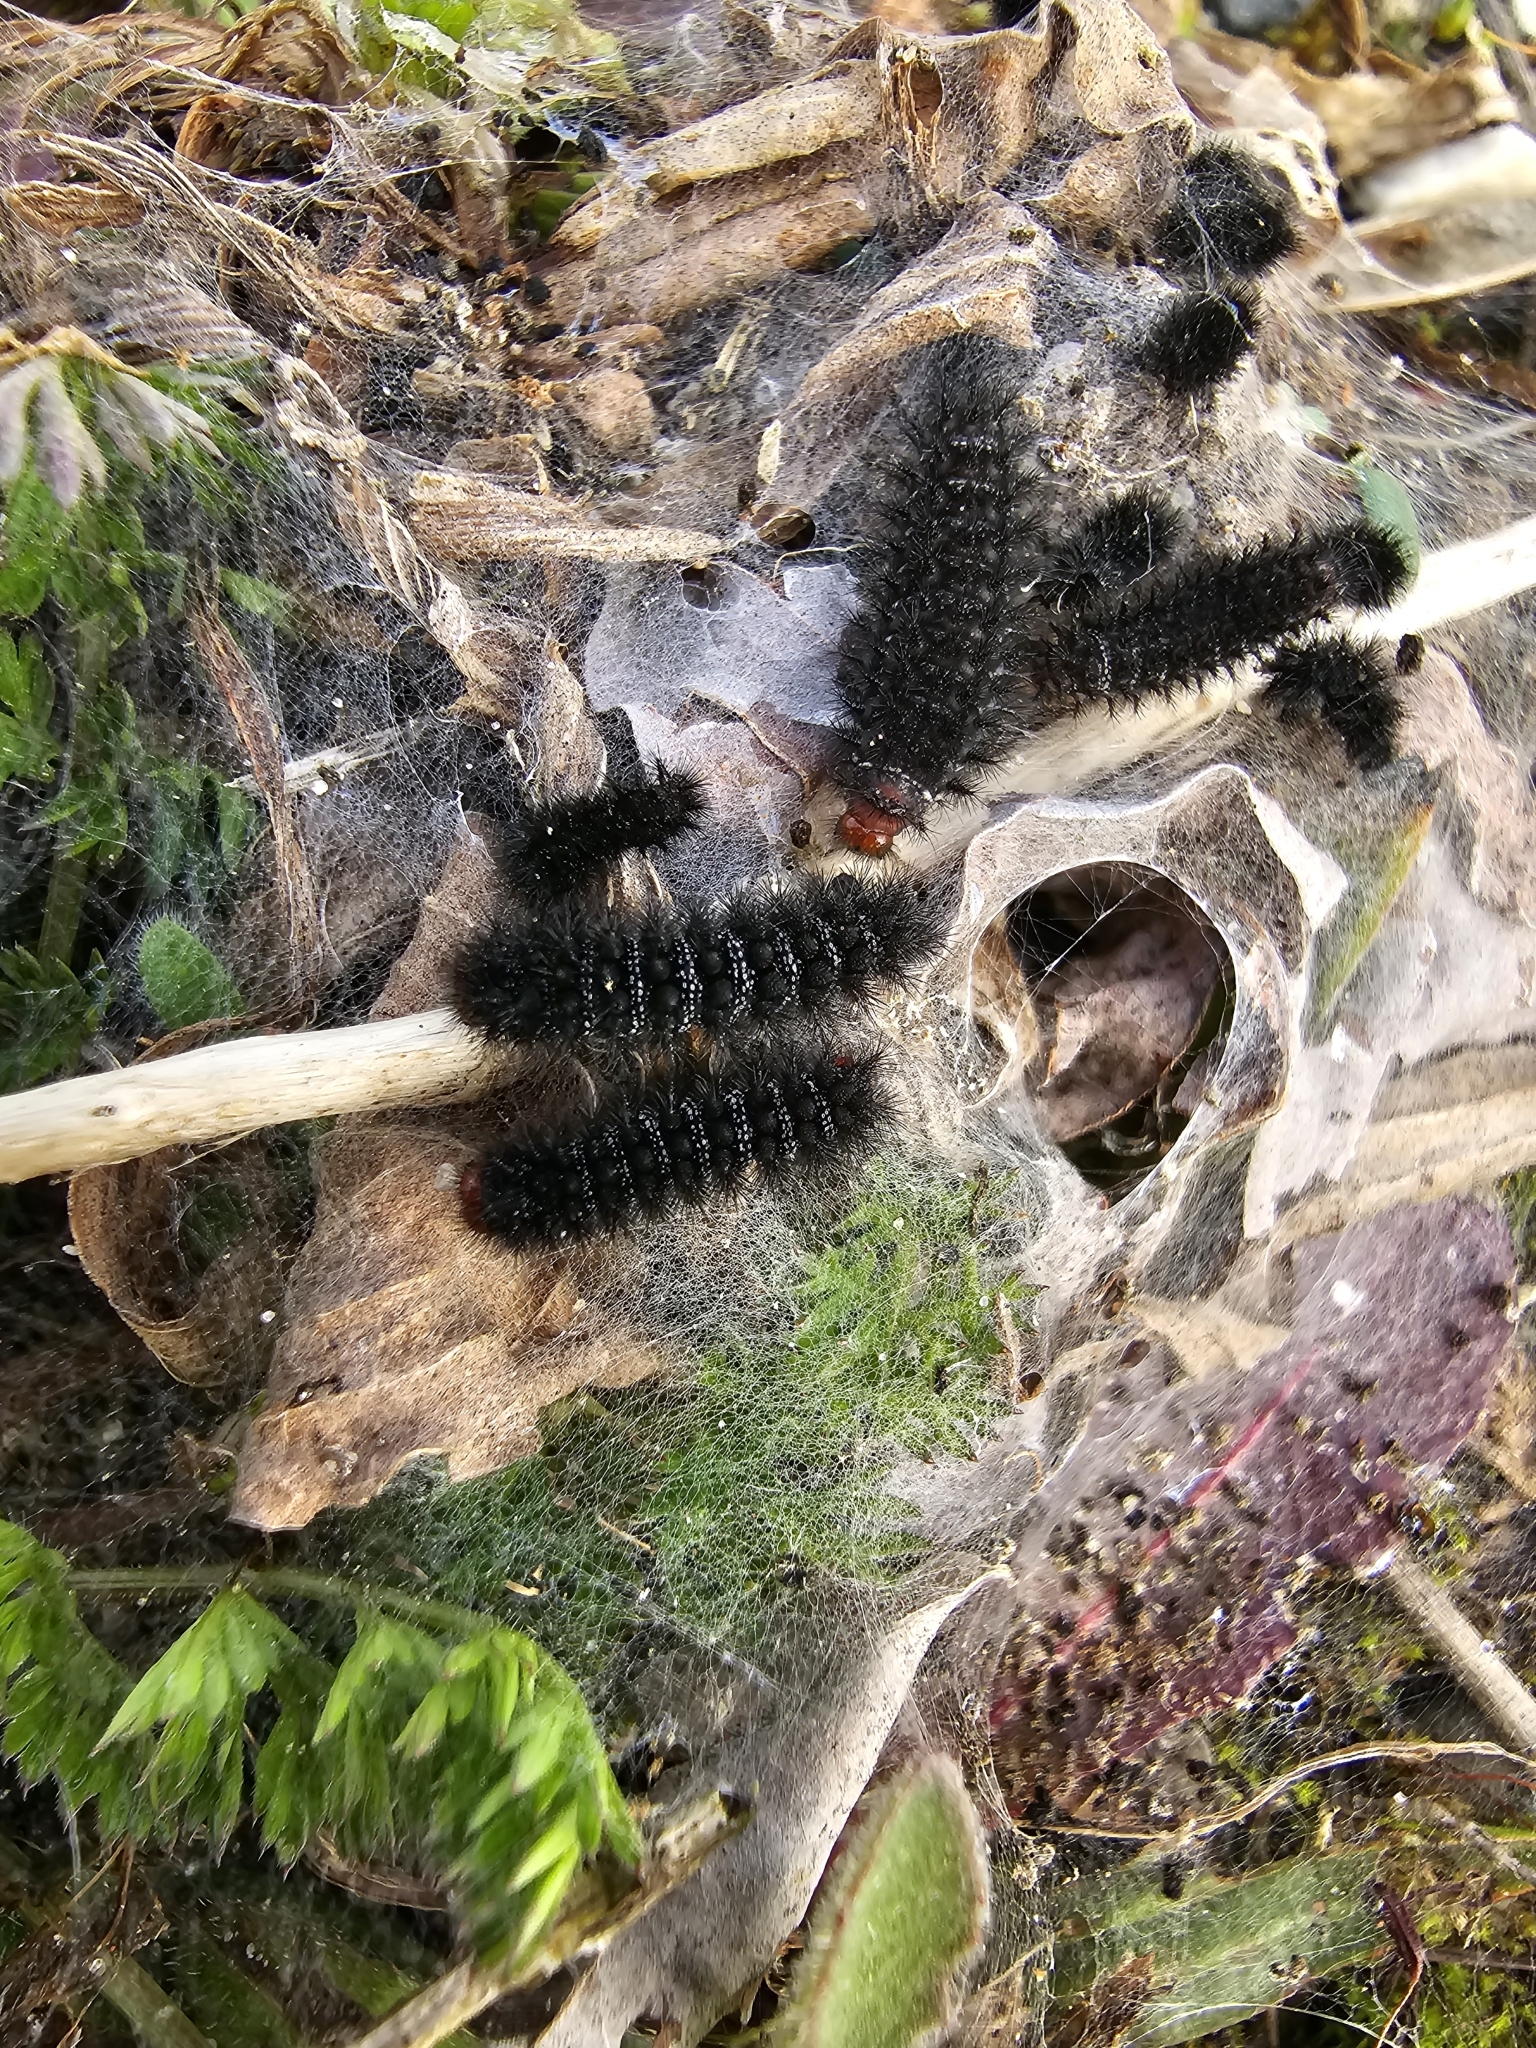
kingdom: Animalia
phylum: Arthropoda
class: Insecta
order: Lepidoptera
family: Nymphalidae
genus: Melitaea
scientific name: Melitaea cinxia
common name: Glanville fritillary
